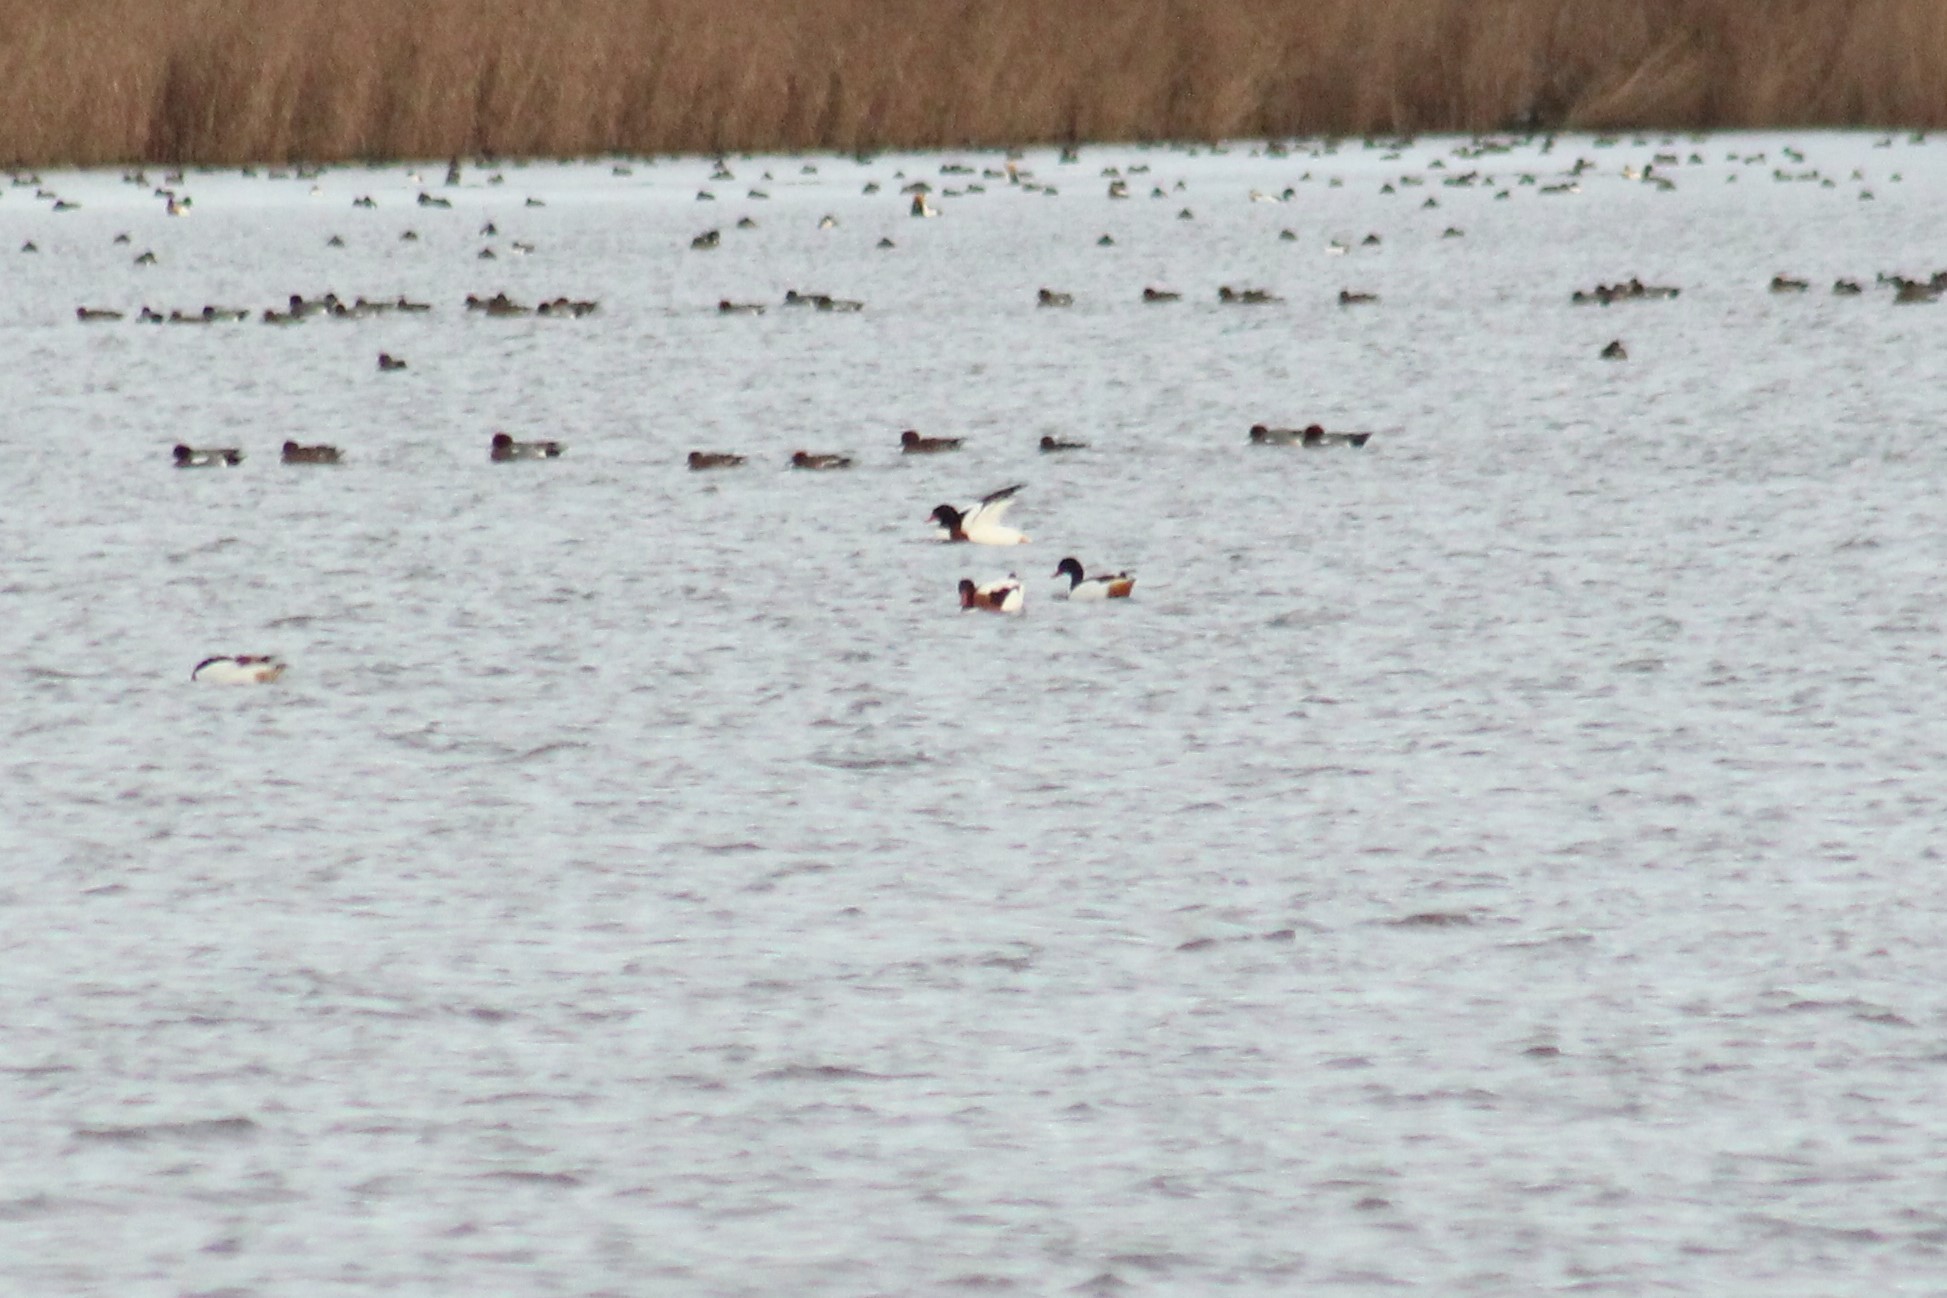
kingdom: Animalia
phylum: Chordata
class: Aves
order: Anseriformes
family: Anatidae
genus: Tadorna
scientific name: Tadorna tadorna
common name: Common shelduck
